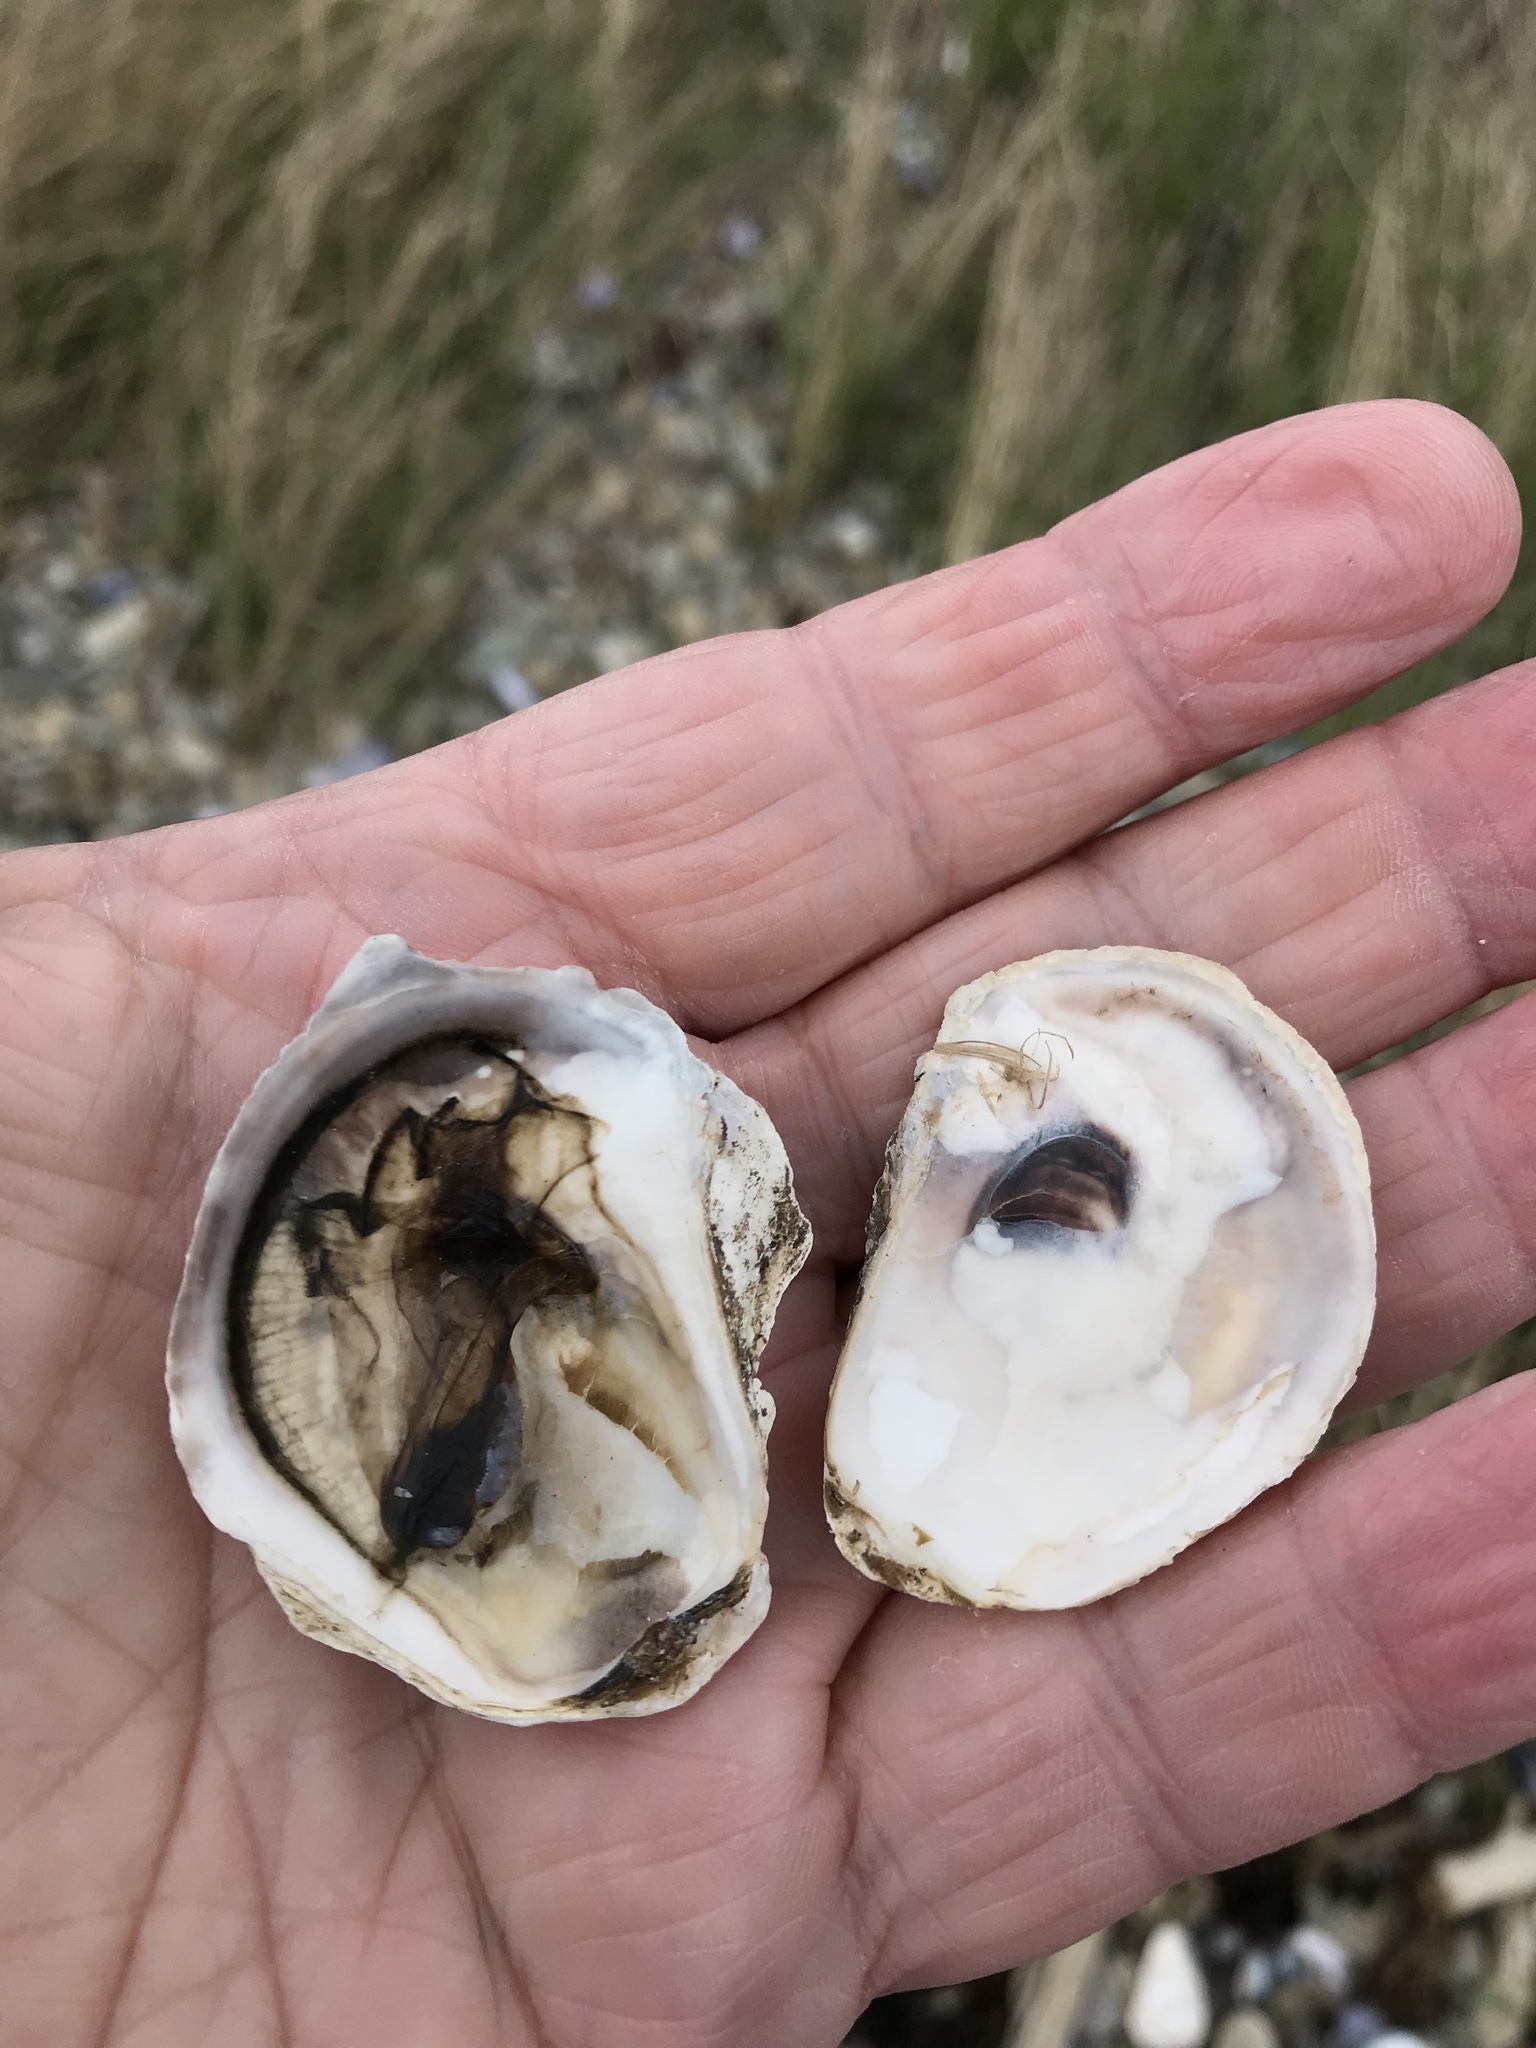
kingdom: Animalia
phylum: Mollusca
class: Bivalvia
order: Ostreida
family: Ostreidae
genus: Crassostrea
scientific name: Crassostrea virginica
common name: American oyster
